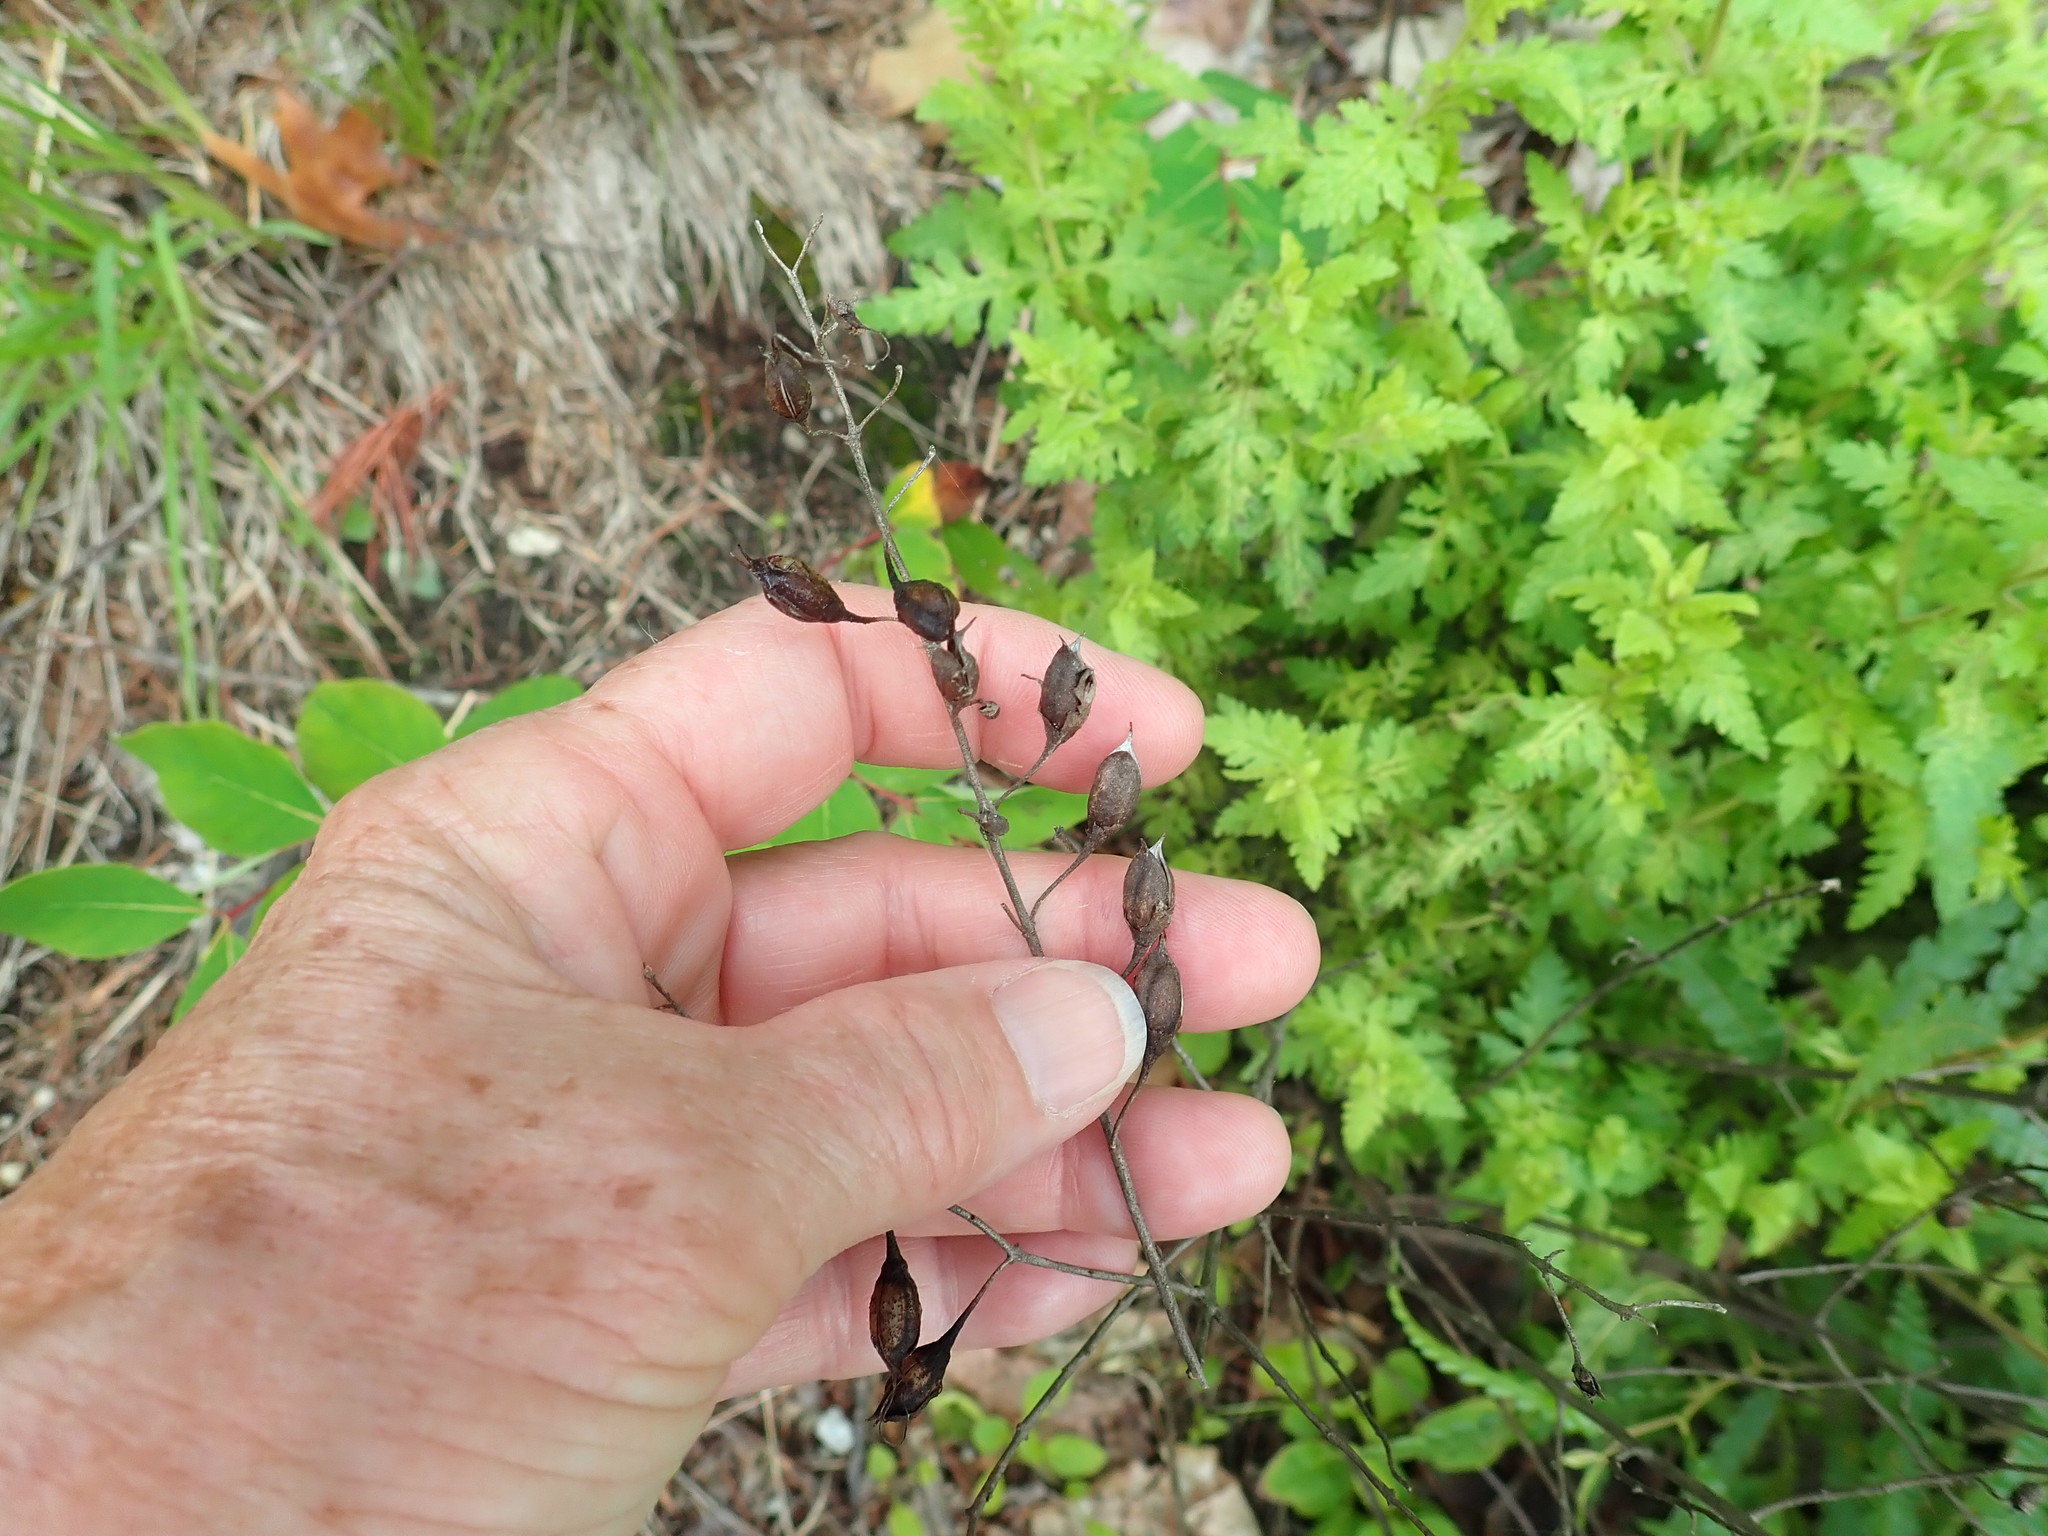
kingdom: Plantae
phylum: Tracheophyta
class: Magnoliopsida
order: Lamiales
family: Orobanchaceae
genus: Aureolaria
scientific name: Aureolaria pedicularia
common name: Annual false foxglove
